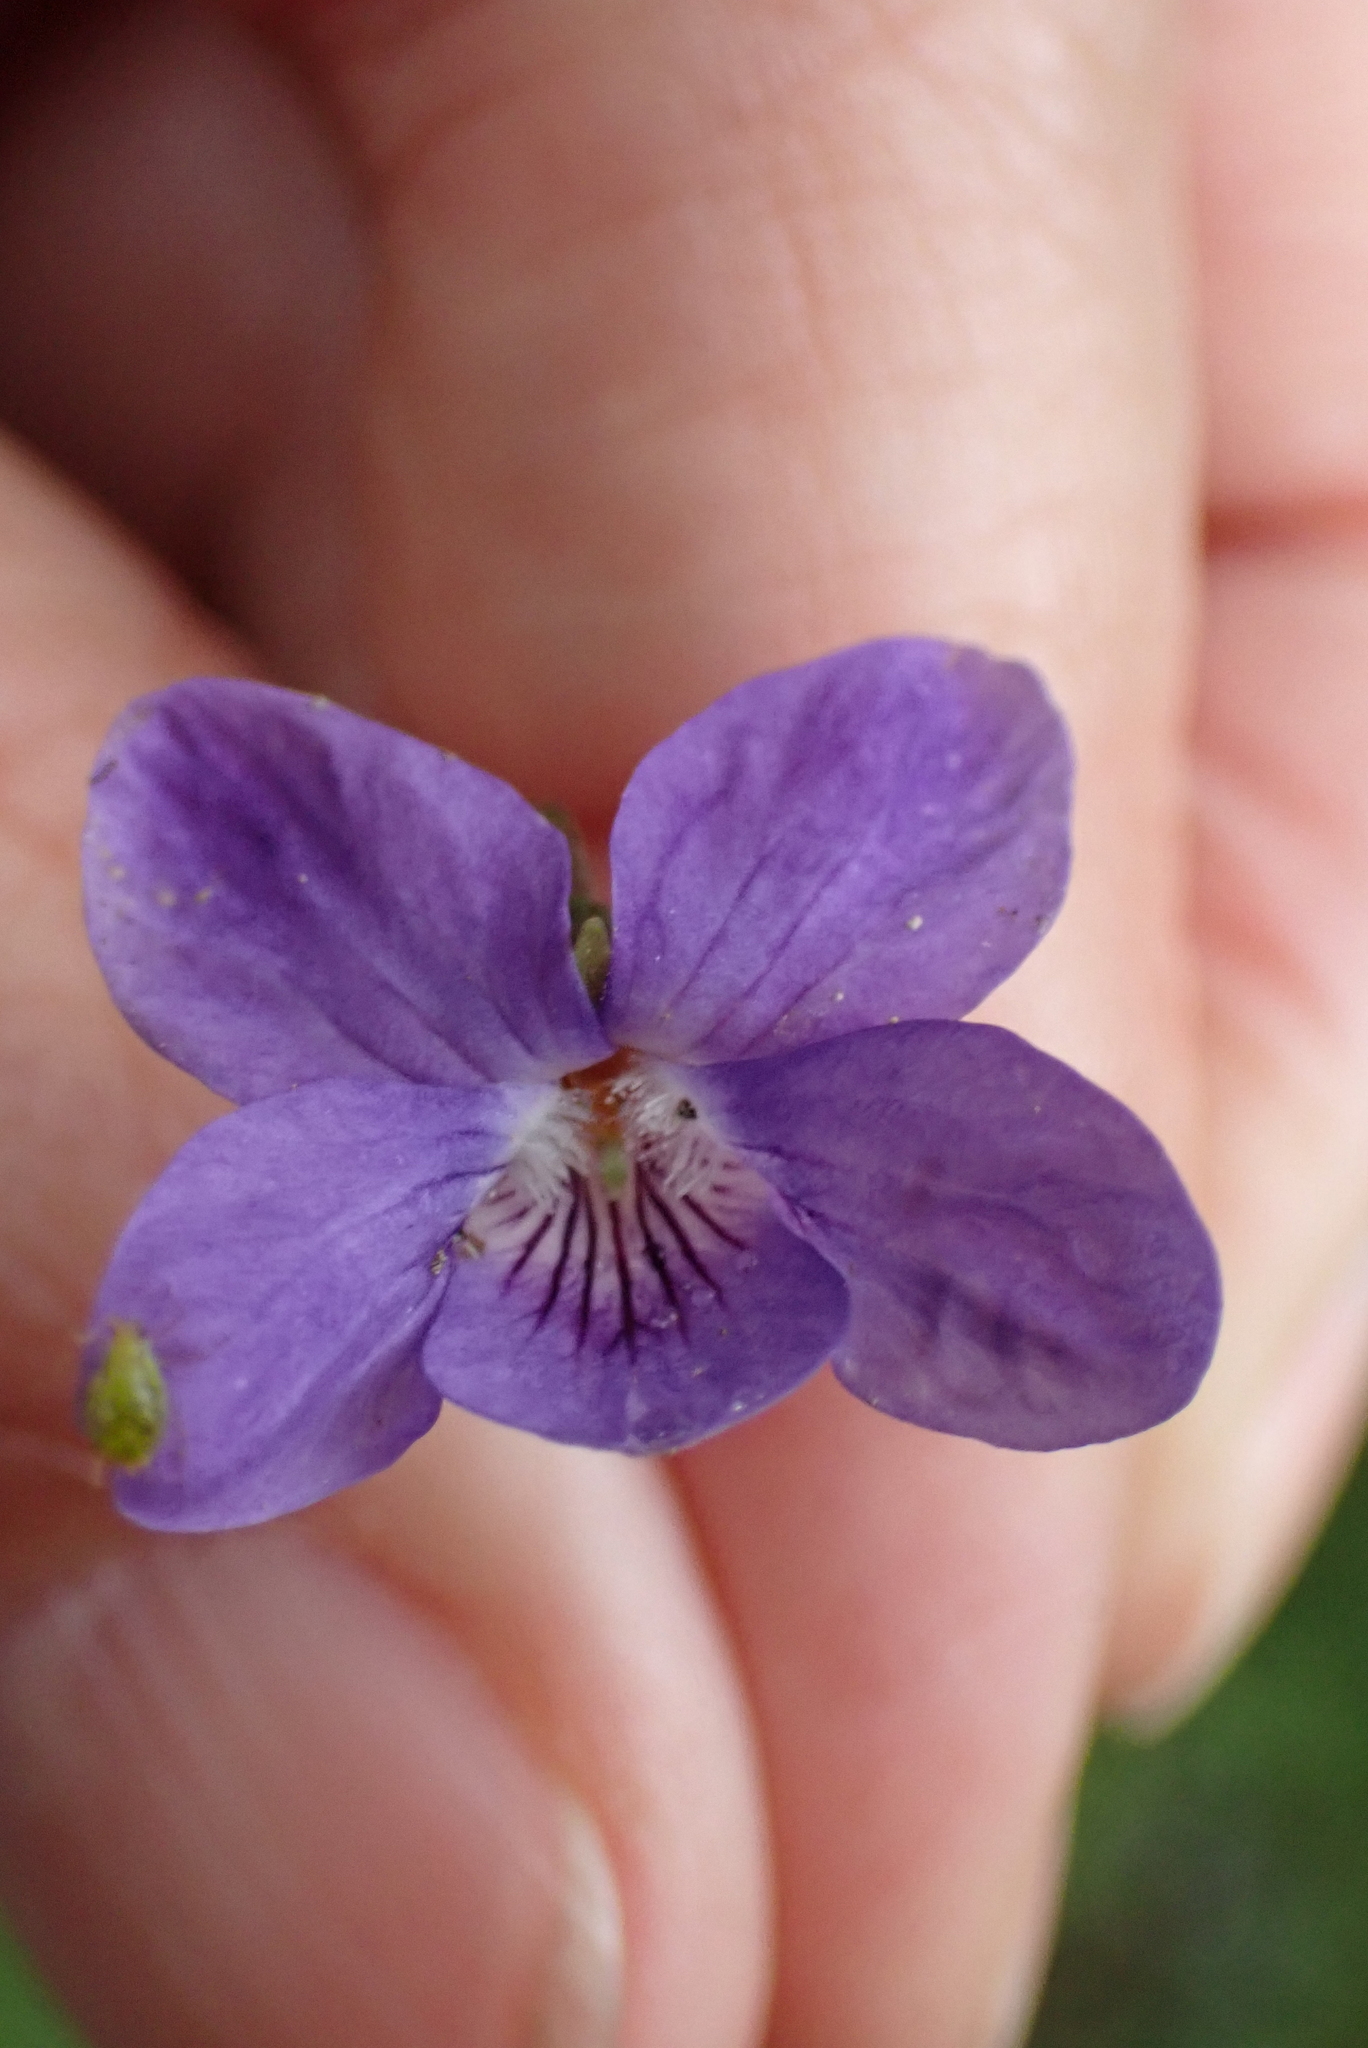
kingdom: Plantae
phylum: Tracheophyta
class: Magnoliopsida
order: Malpighiales
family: Violaceae
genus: Viola
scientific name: Viola riviniana
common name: Common dog-violet
